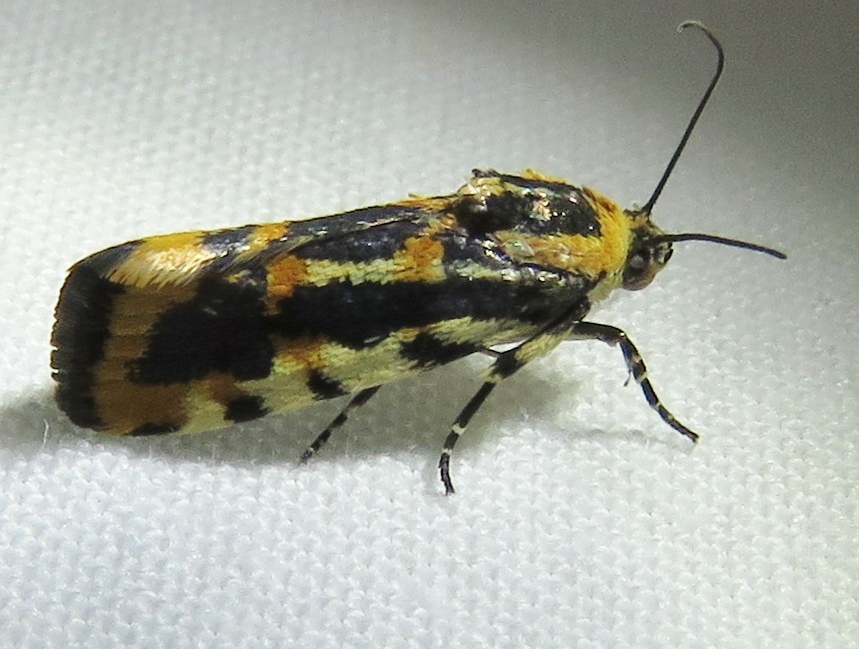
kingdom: Animalia
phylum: Arthropoda
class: Insecta
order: Lepidoptera
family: Noctuidae
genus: Acontia
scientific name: Acontia leo
